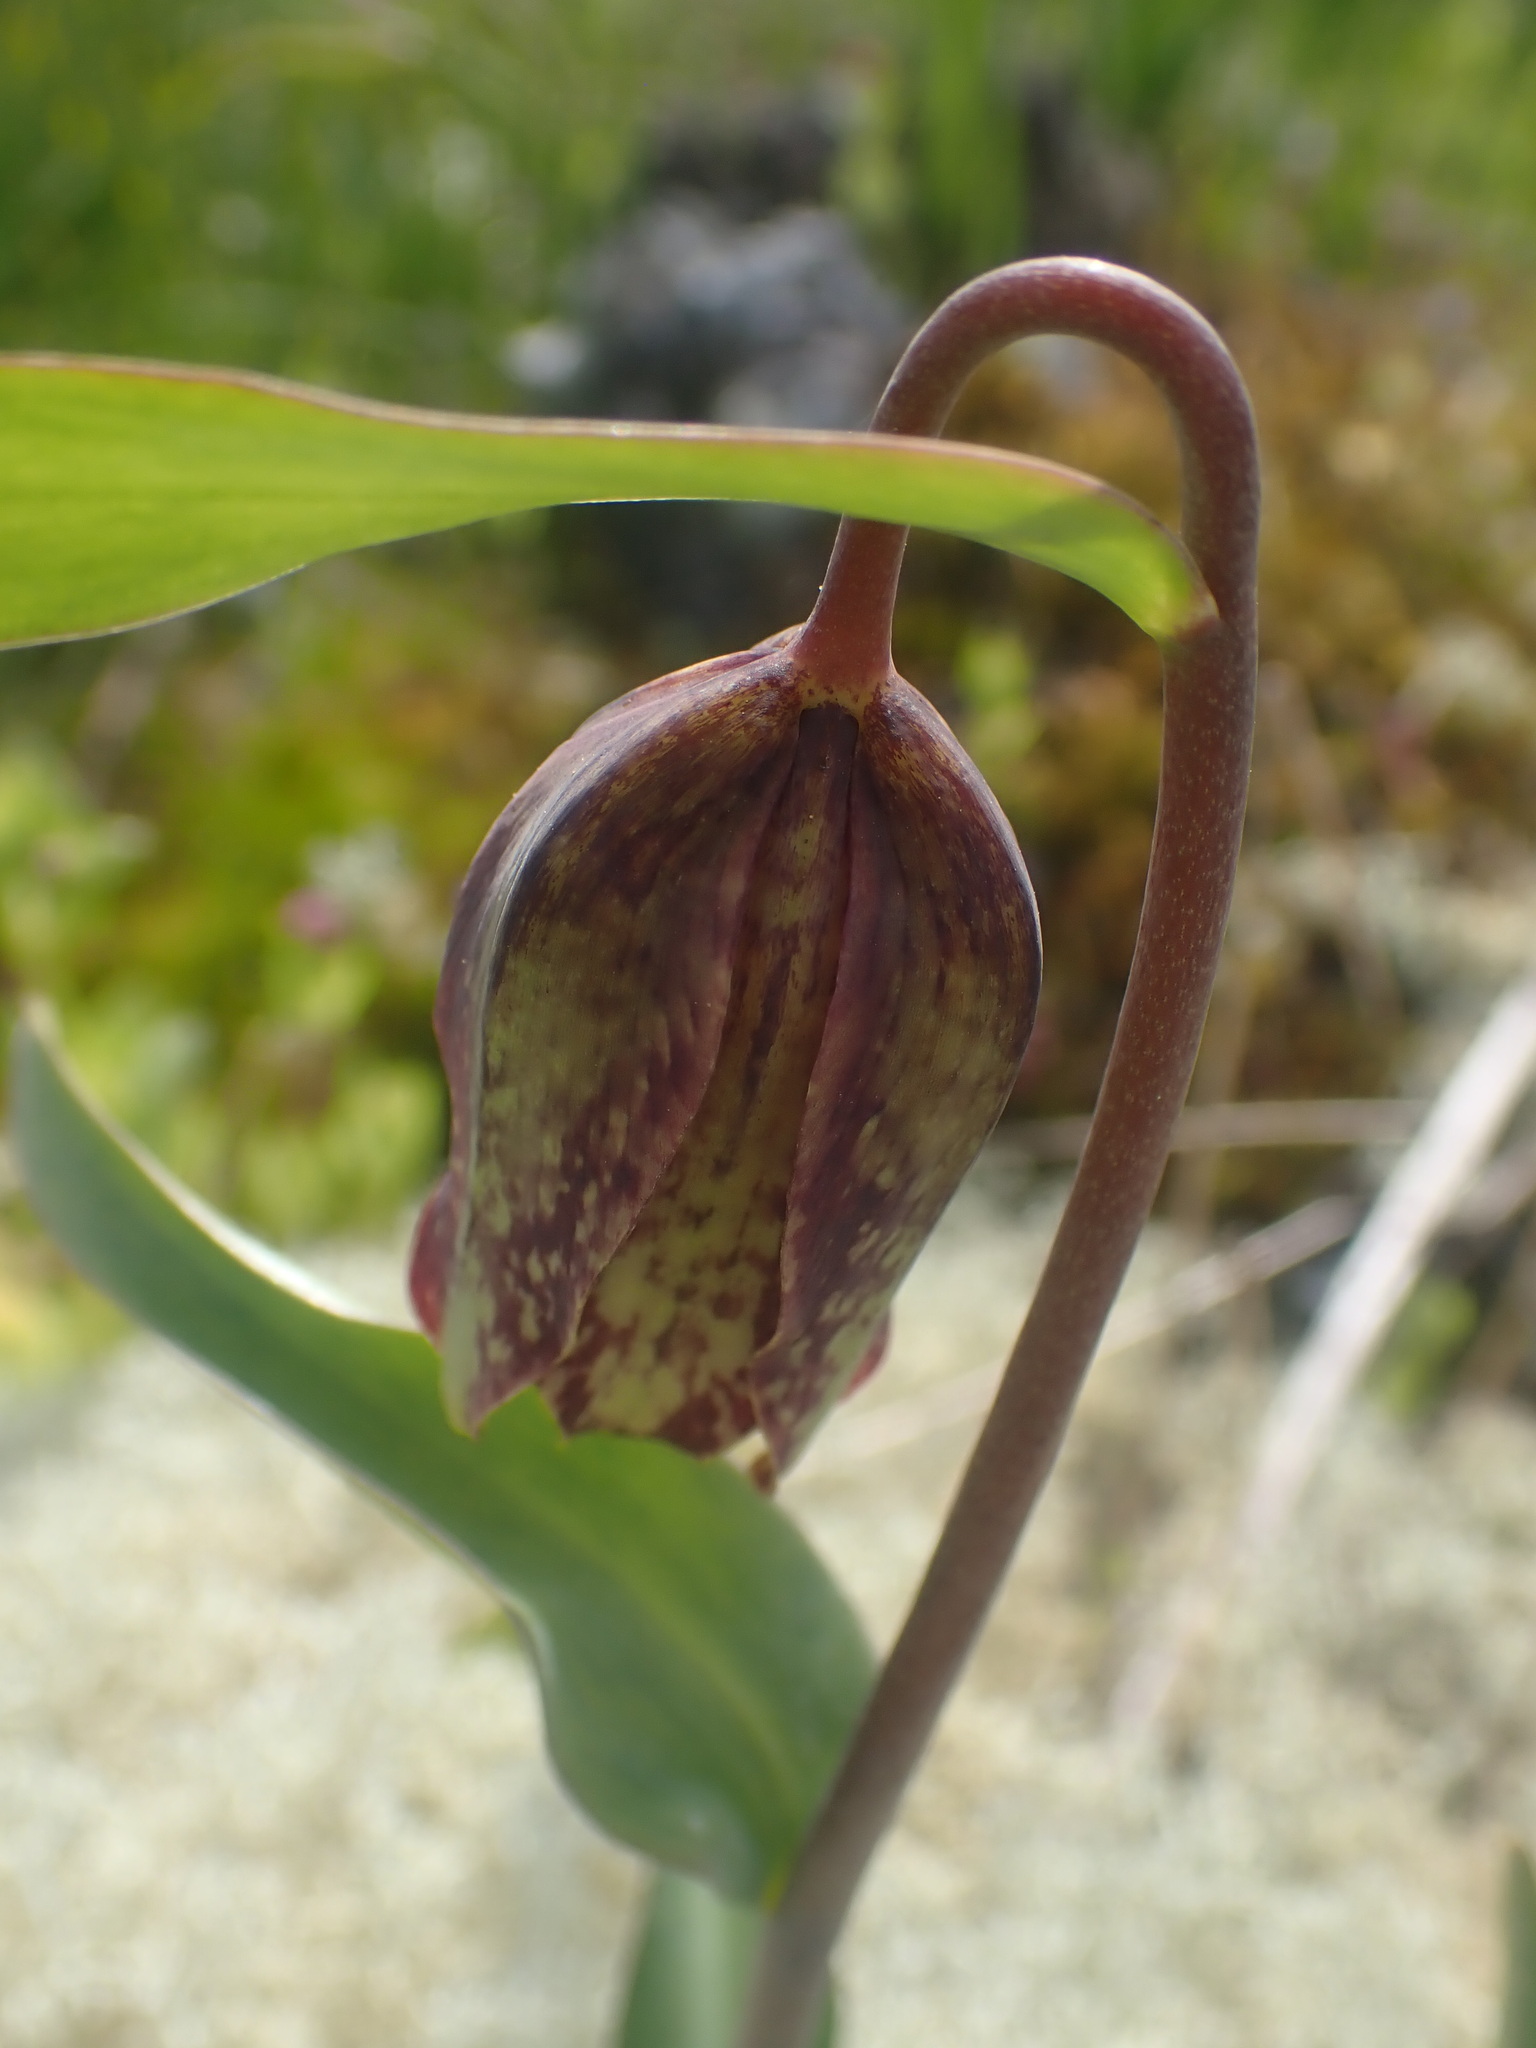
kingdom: Plantae
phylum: Tracheophyta
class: Liliopsida
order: Liliales
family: Liliaceae
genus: Fritillaria
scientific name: Fritillaria affinis
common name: Ojai fritillary
